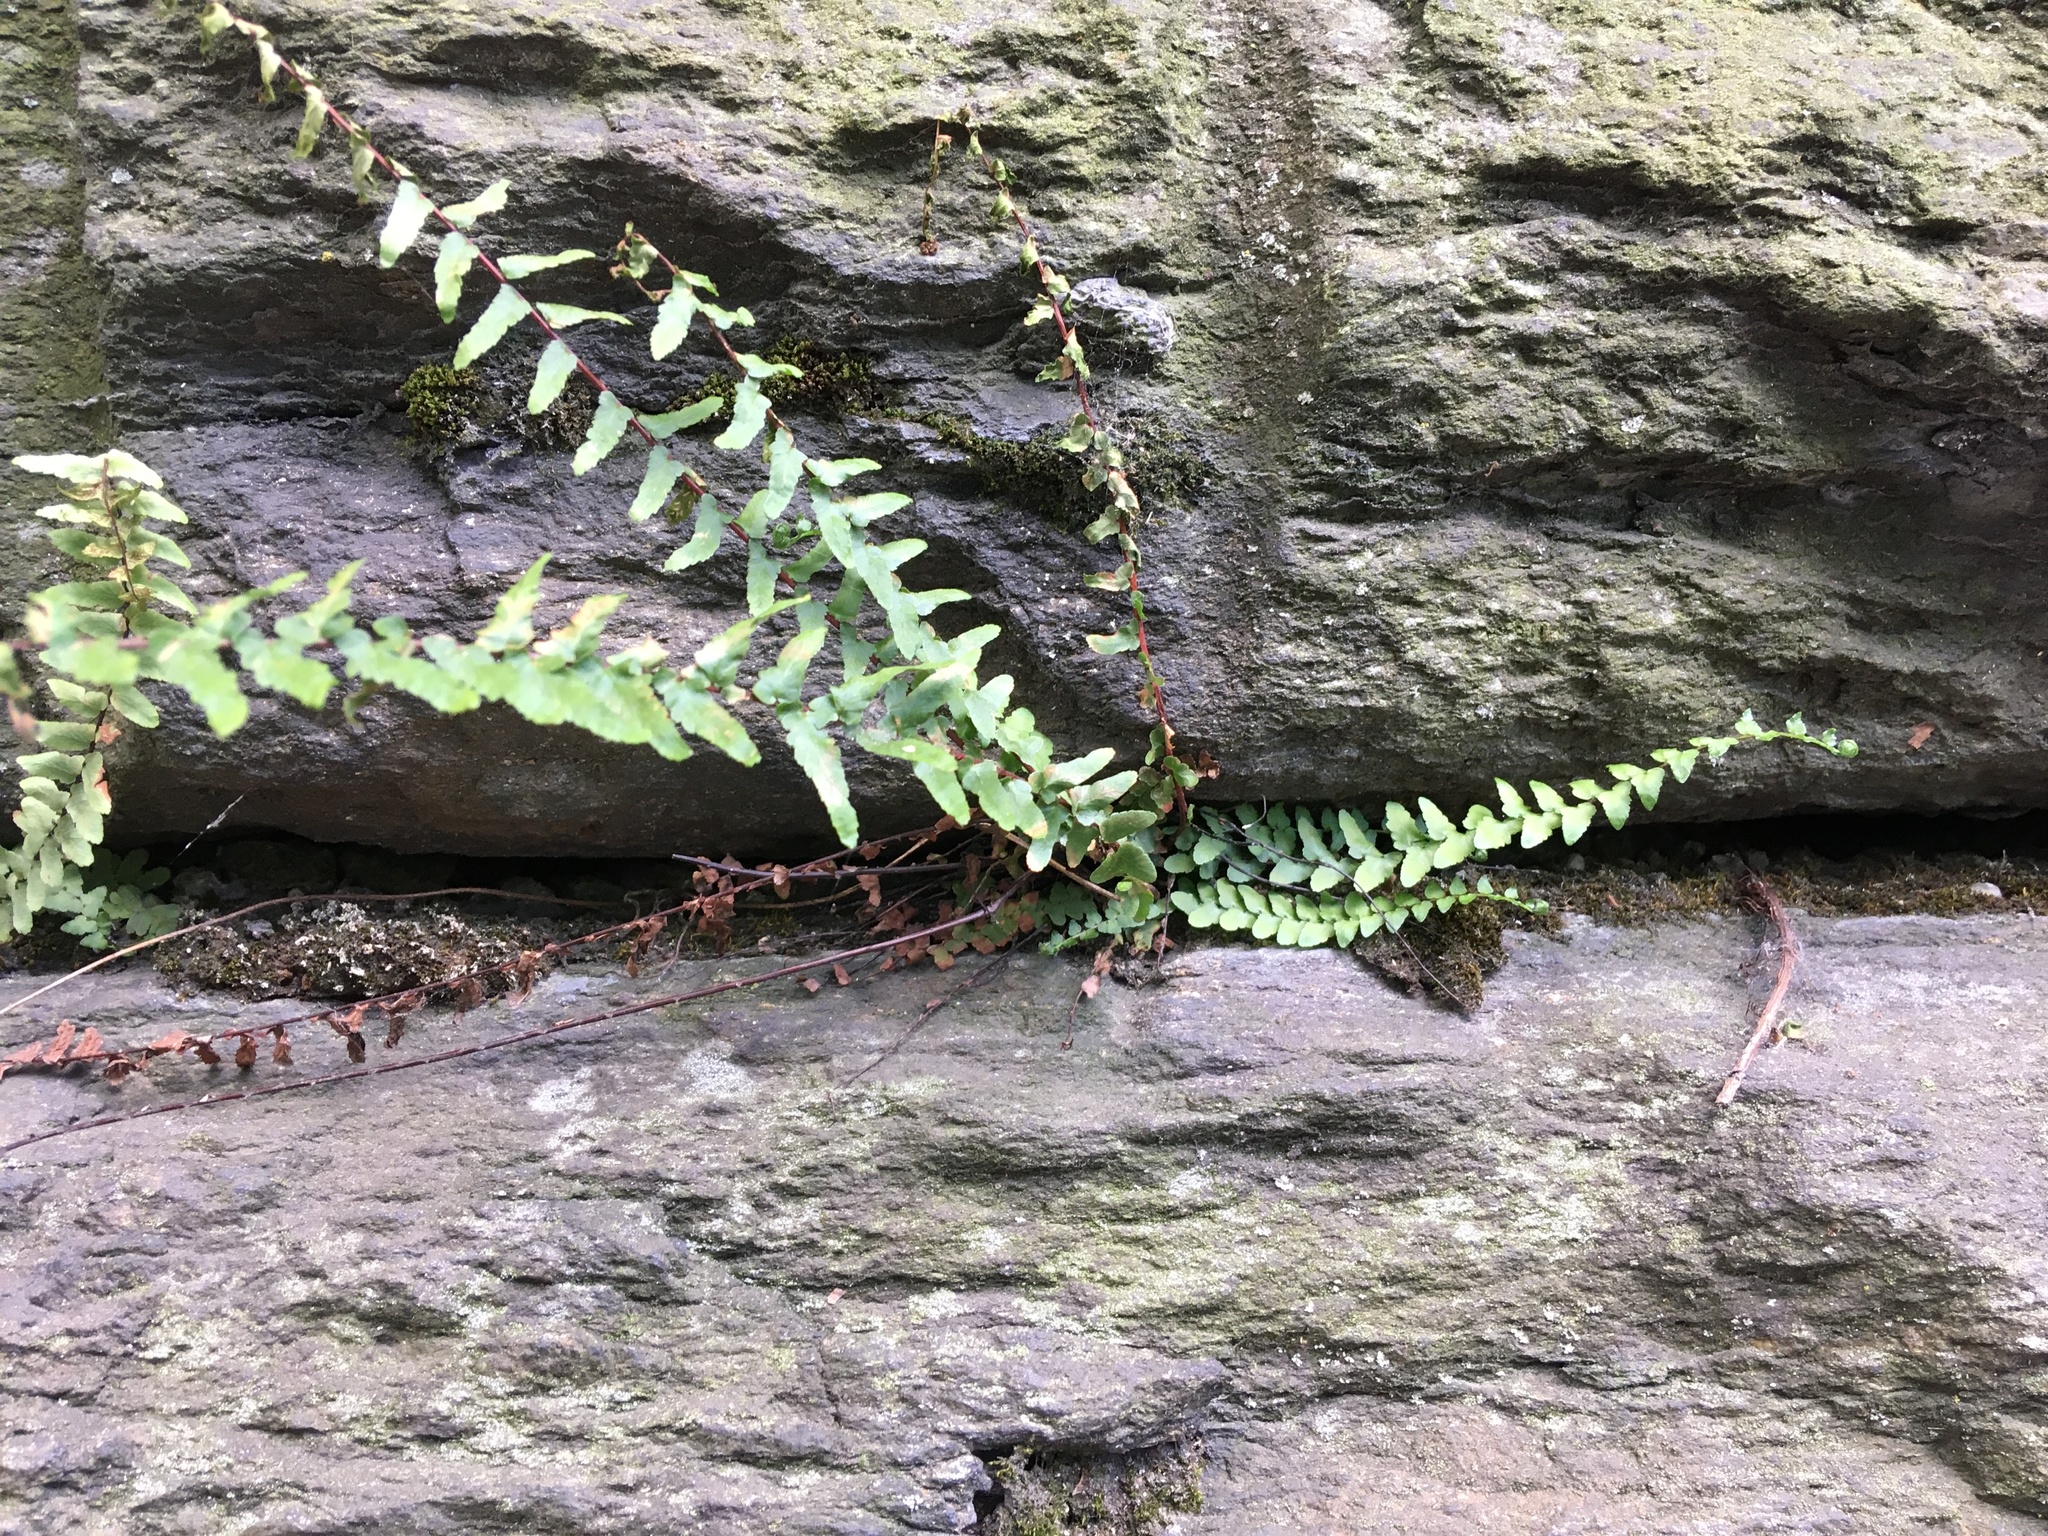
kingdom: Plantae
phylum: Tracheophyta
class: Polypodiopsida
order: Polypodiales
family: Aspleniaceae
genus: Asplenium
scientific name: Asplenium platyneuron
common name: Ebony spleenwort
